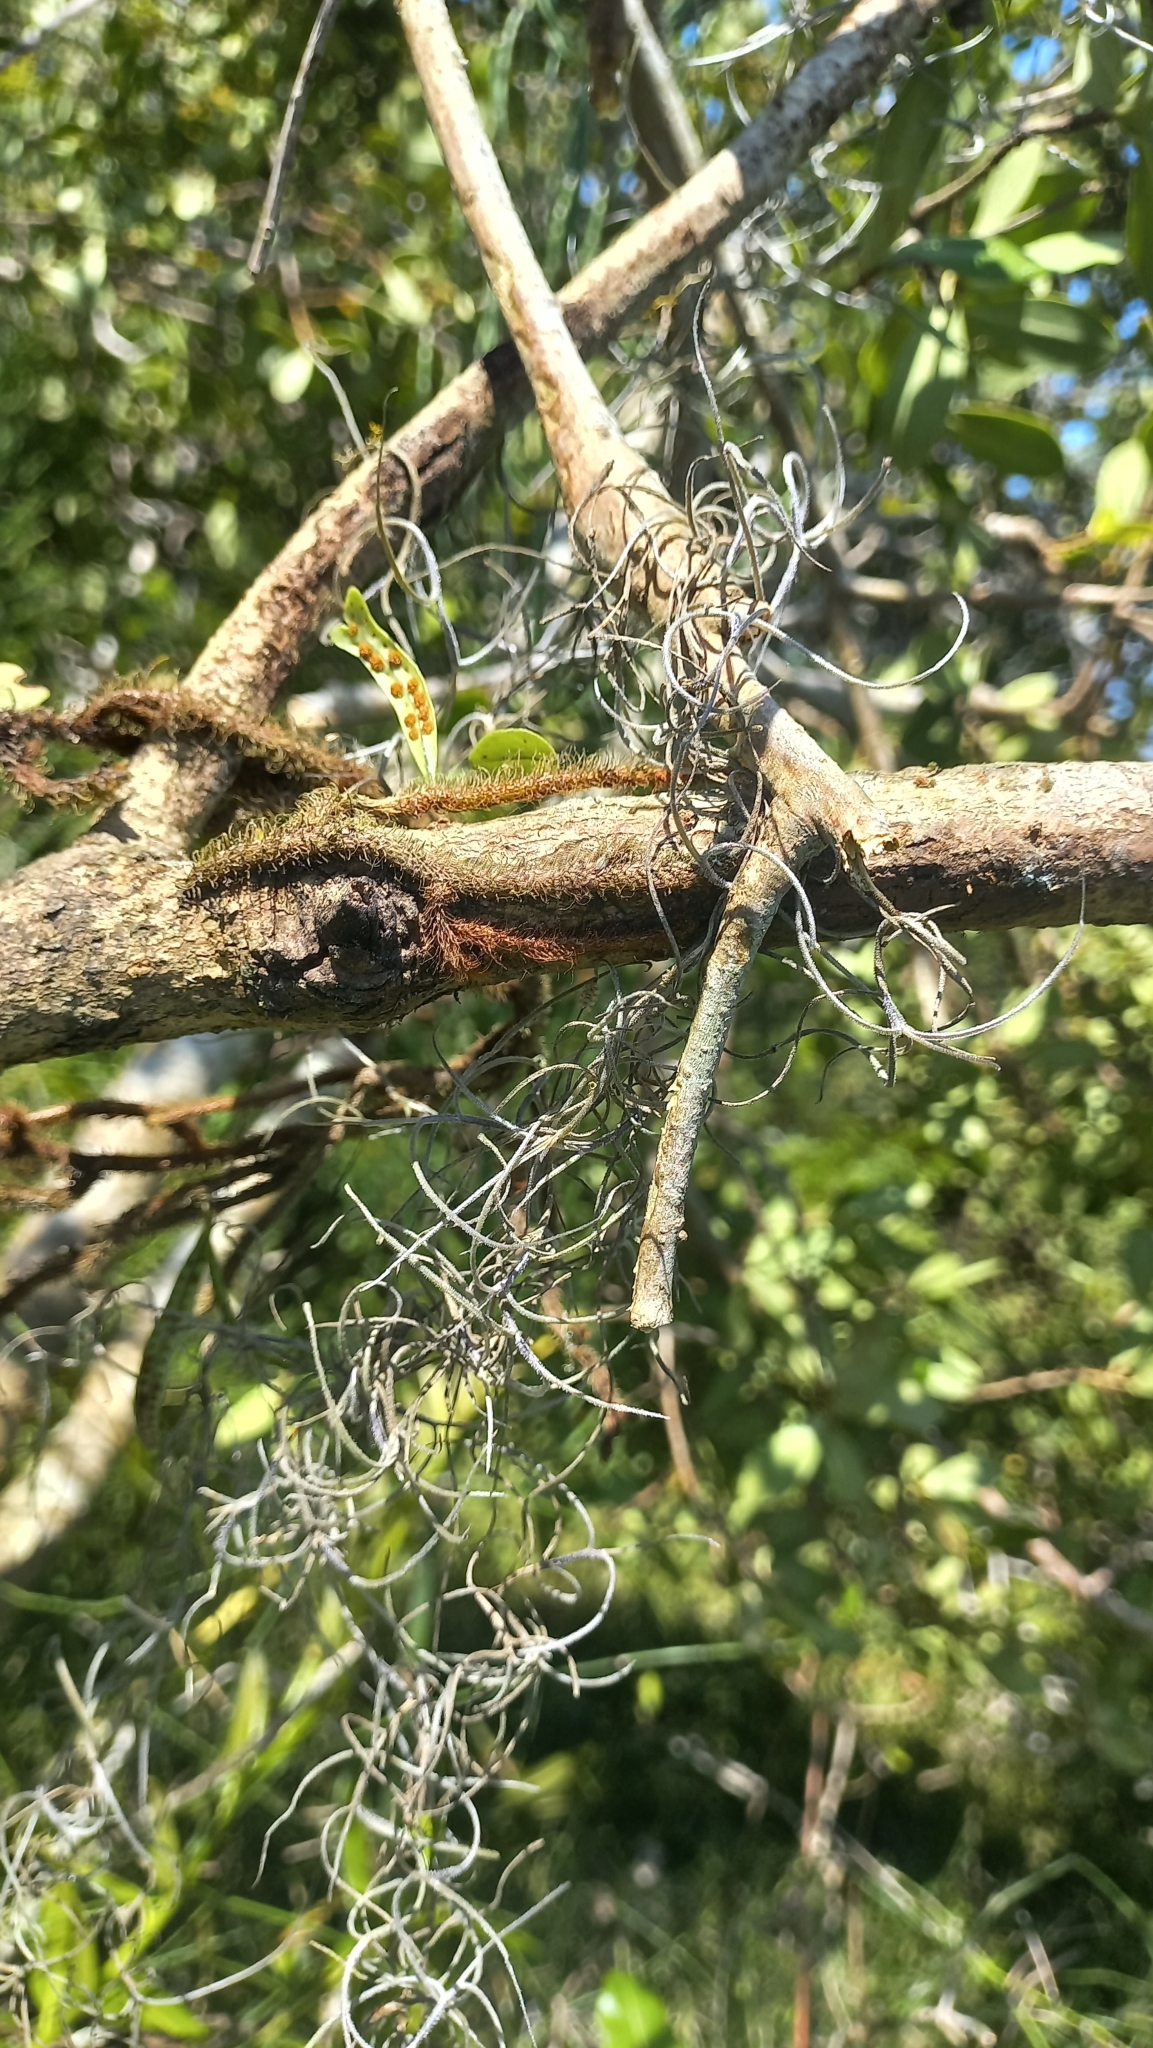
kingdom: Plantae
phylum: Tracheophyta
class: Liliopsida
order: Poales
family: Bromeliaceae
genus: Tillandsia
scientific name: Tillandsia usneoides
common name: Spanish moss
